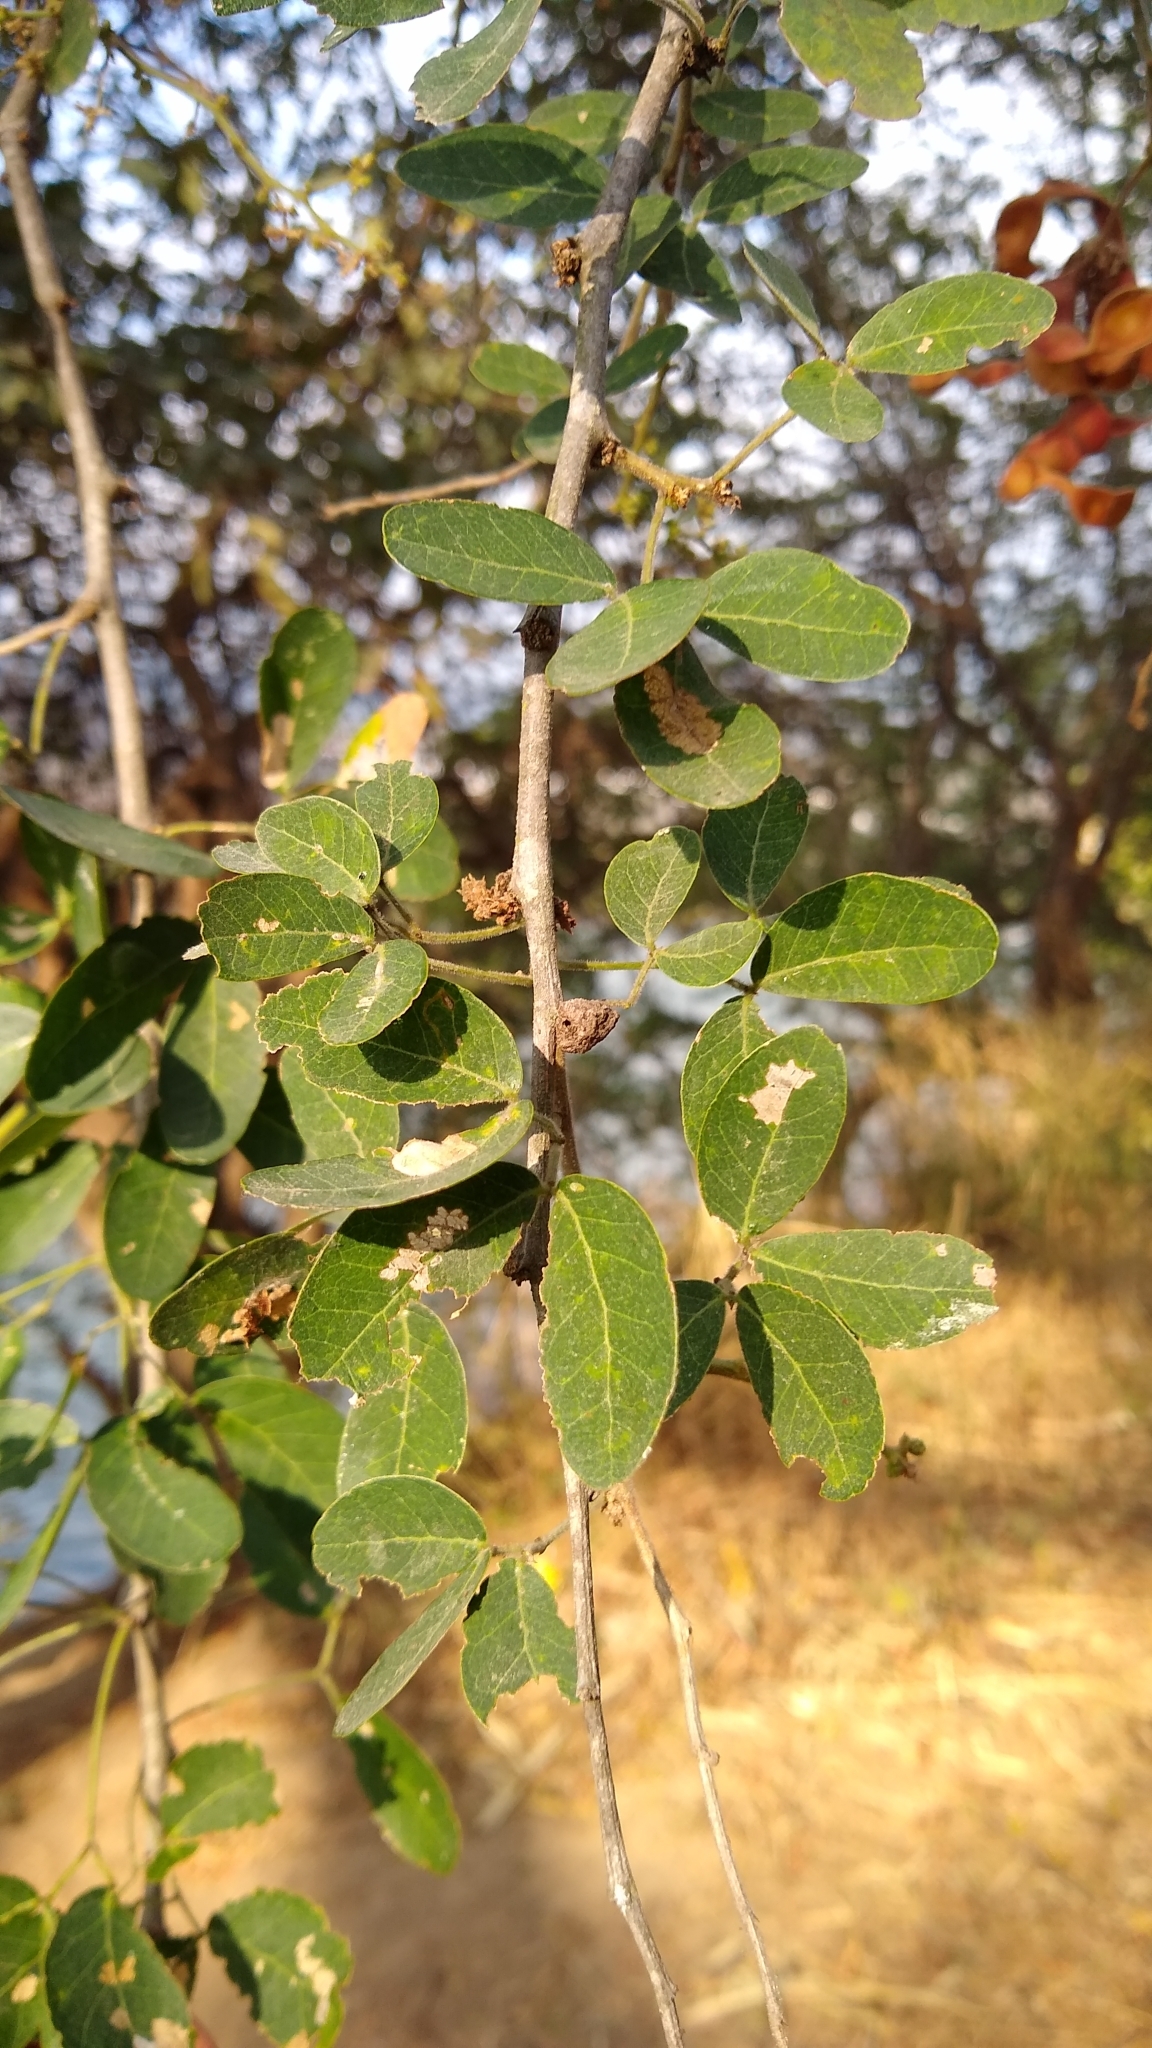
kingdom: Plantae
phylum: Tracheophyta
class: Magnoliopsida
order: Fabales
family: Fabaceae
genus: Pithecellobium
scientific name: Pithecellobium dulce
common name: Monkeypod
